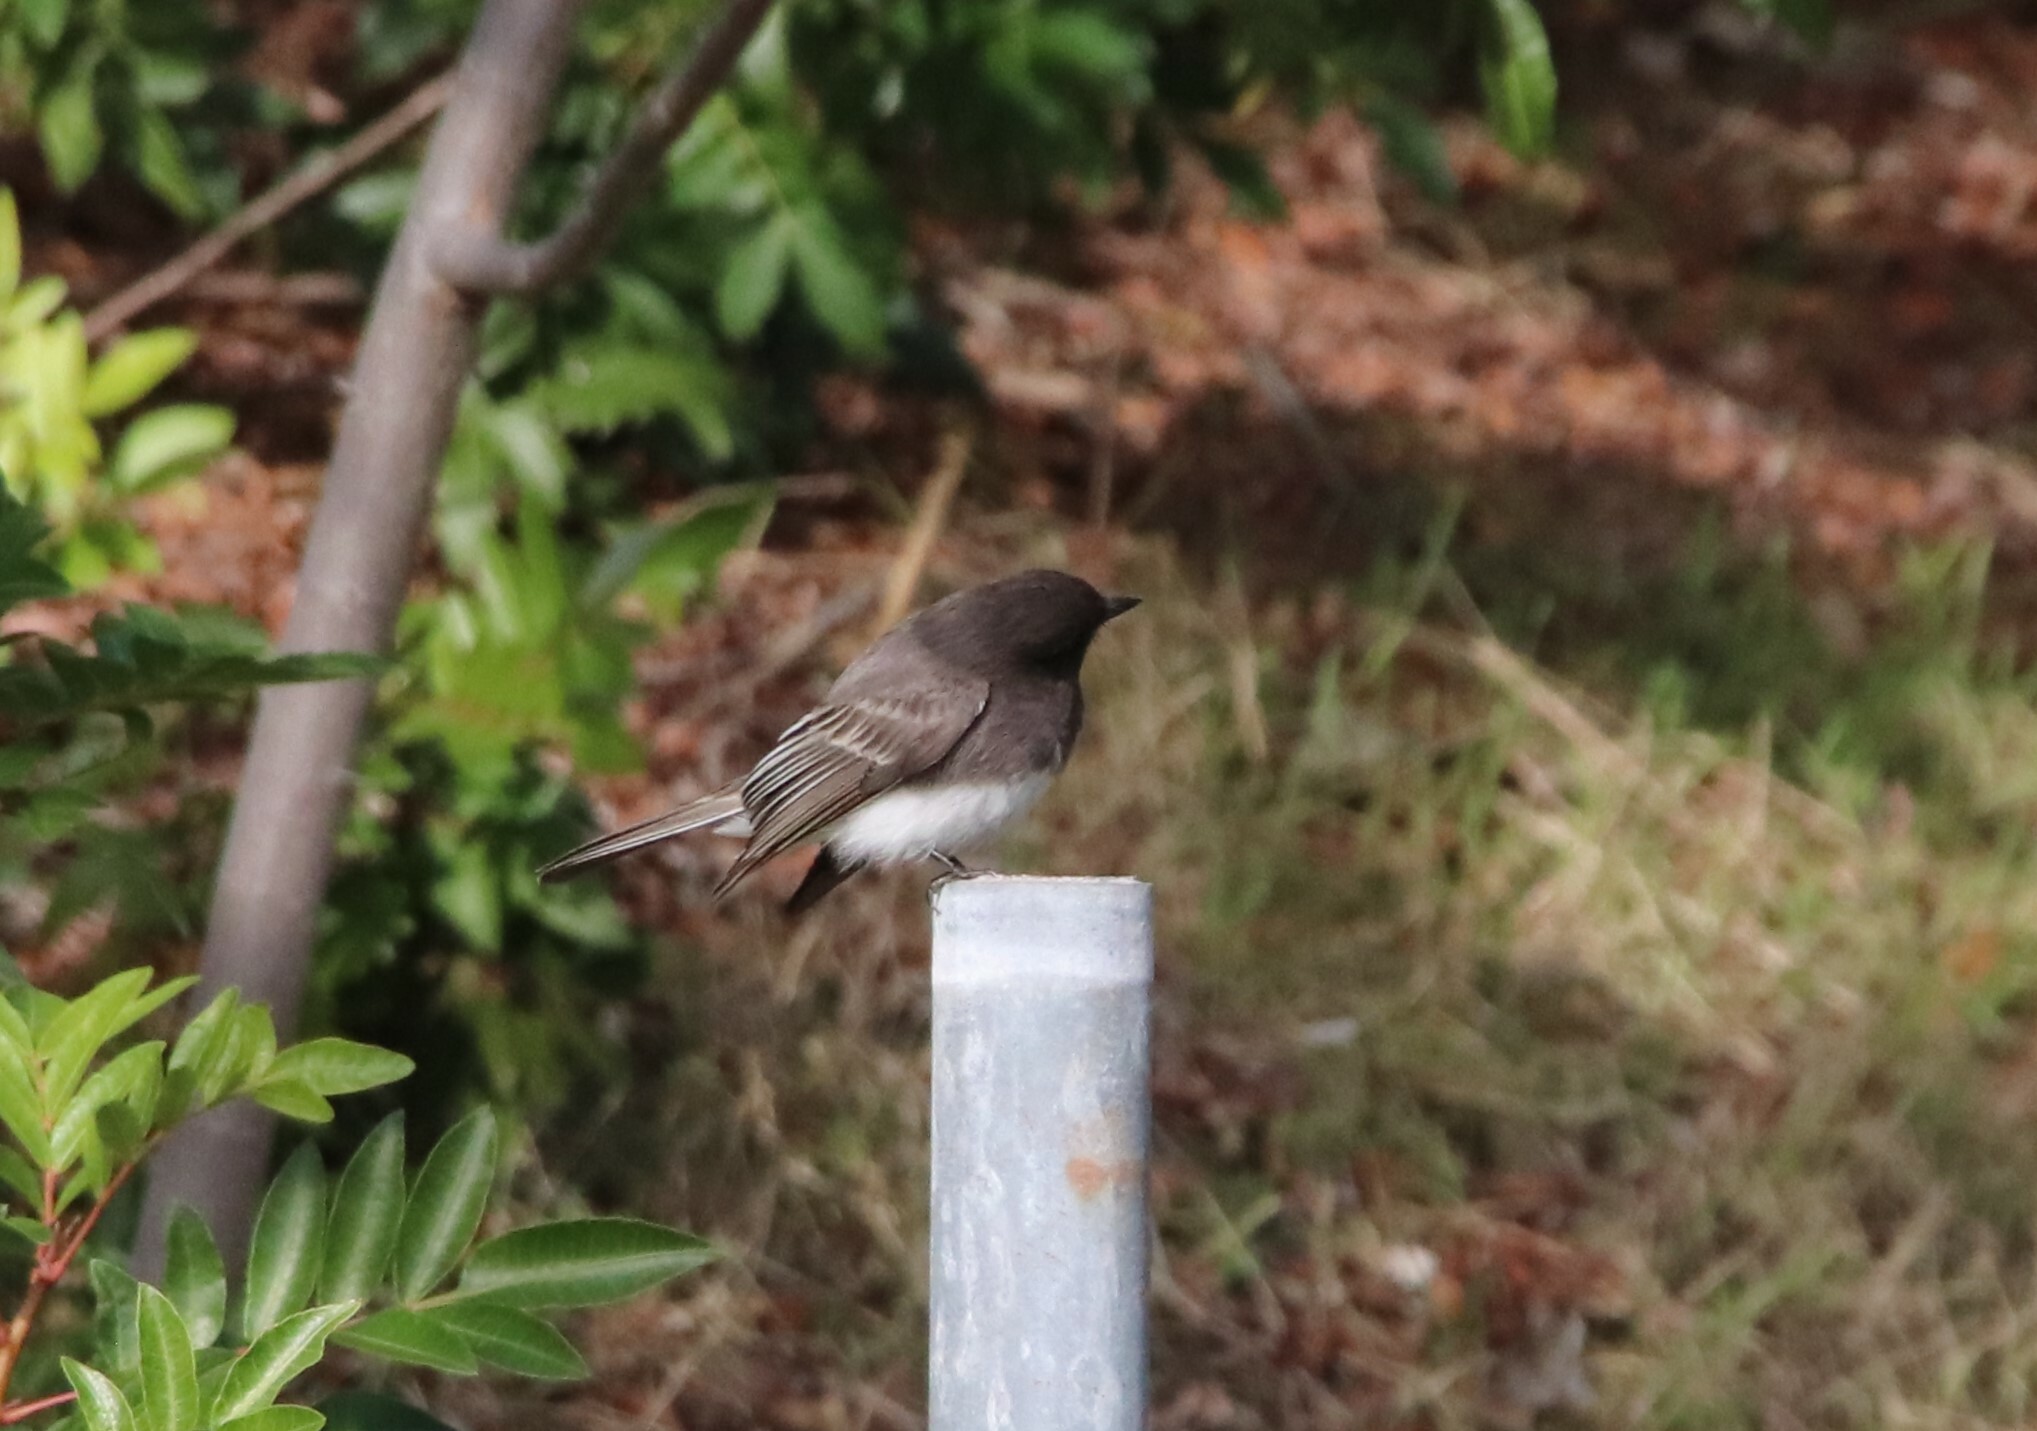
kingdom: Animalia
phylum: Chordata
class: Aves
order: Passeriformes
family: Tyrannidae
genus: Sayornis
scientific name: Sayornis nigricans
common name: Black phoebe
